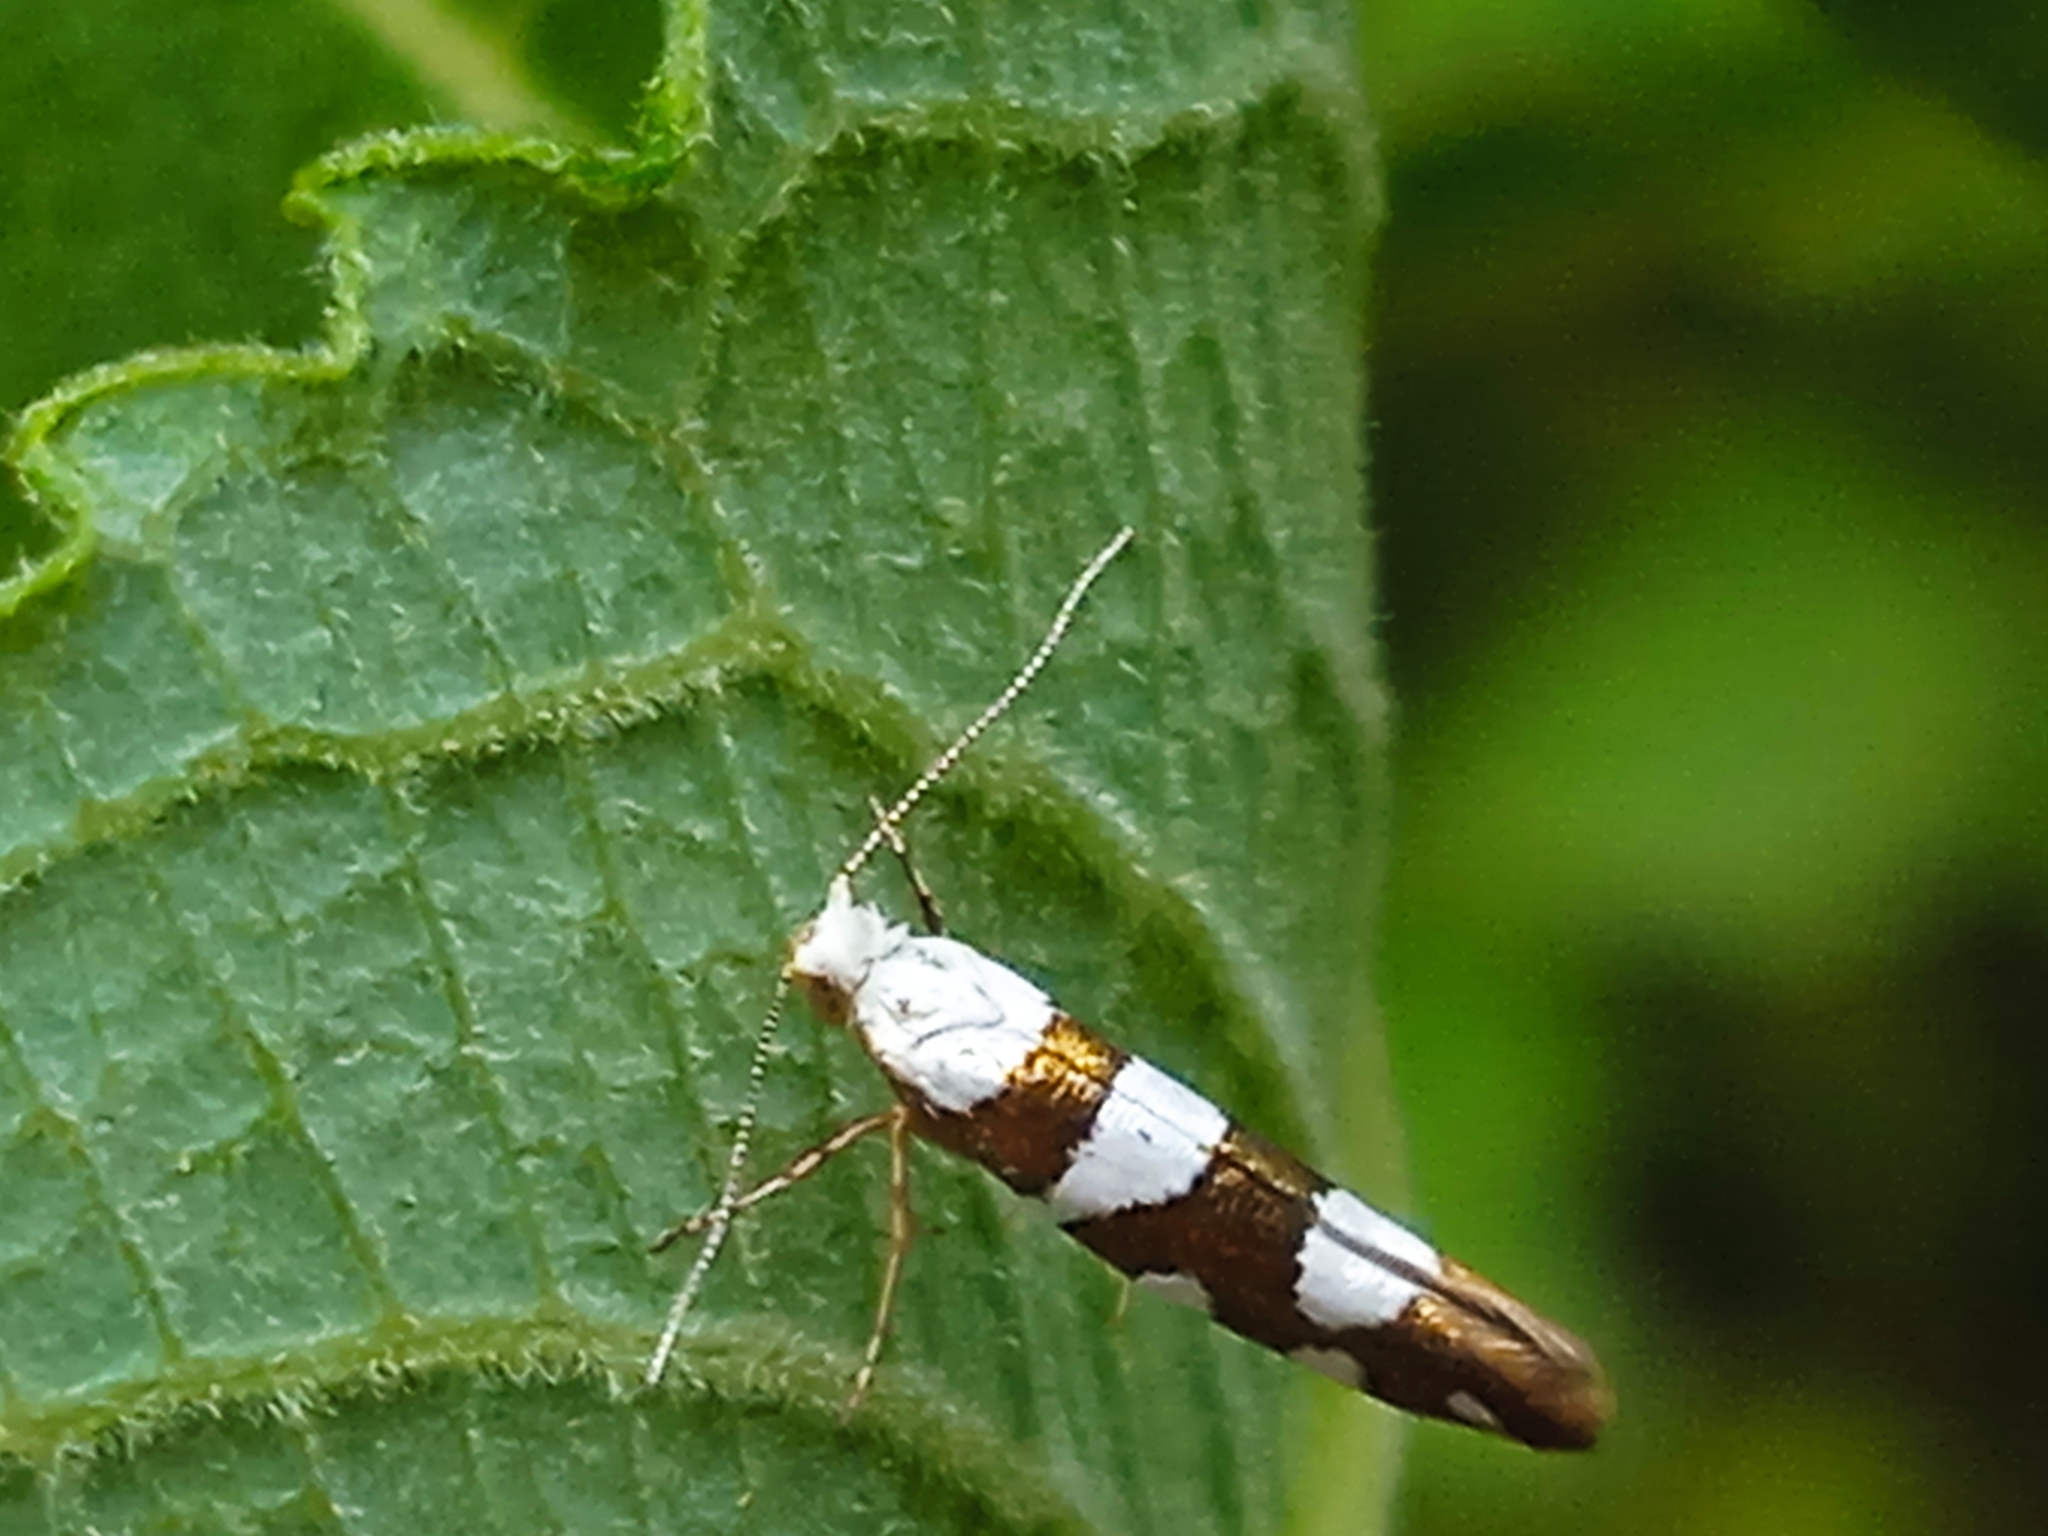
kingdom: Animalia
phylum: Arthropoda
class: Insecta
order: Lepidoptera
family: Argyresthiidae
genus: Argyresthia
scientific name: Argyresthia brockeella
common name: Gold-ribbon argent
